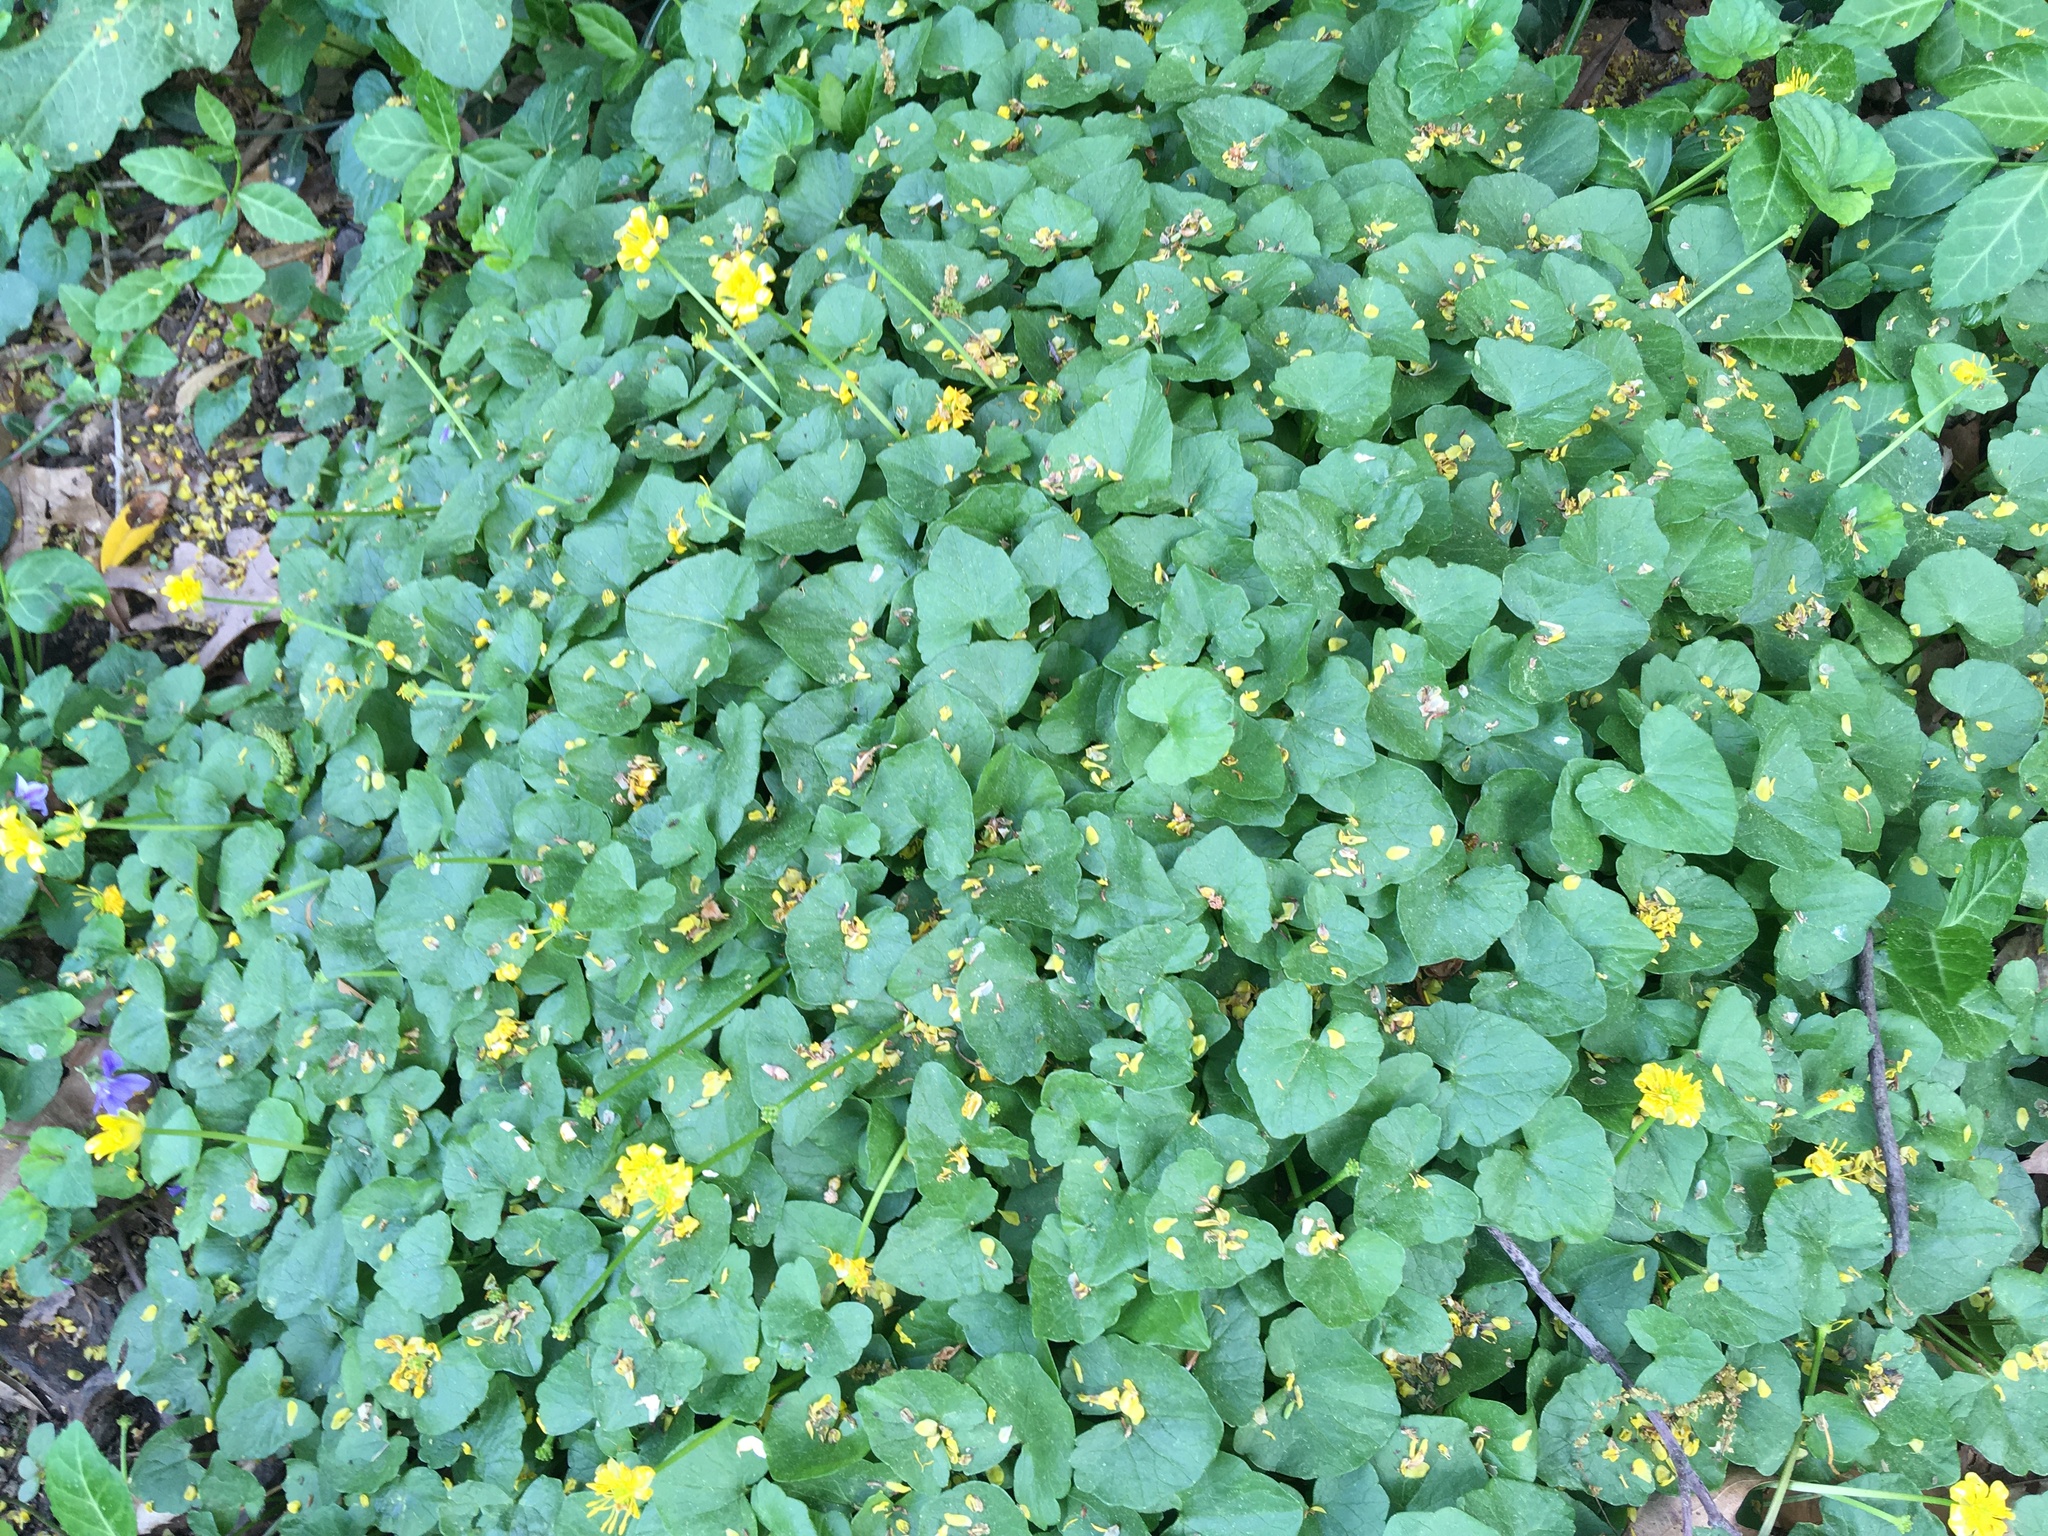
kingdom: Plantae
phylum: Tracheophyta
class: Magnoliopsida
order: Ranunculales
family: Ranunculaceae
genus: Ficaria
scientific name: Ficaria verna
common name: Lesser celandine
